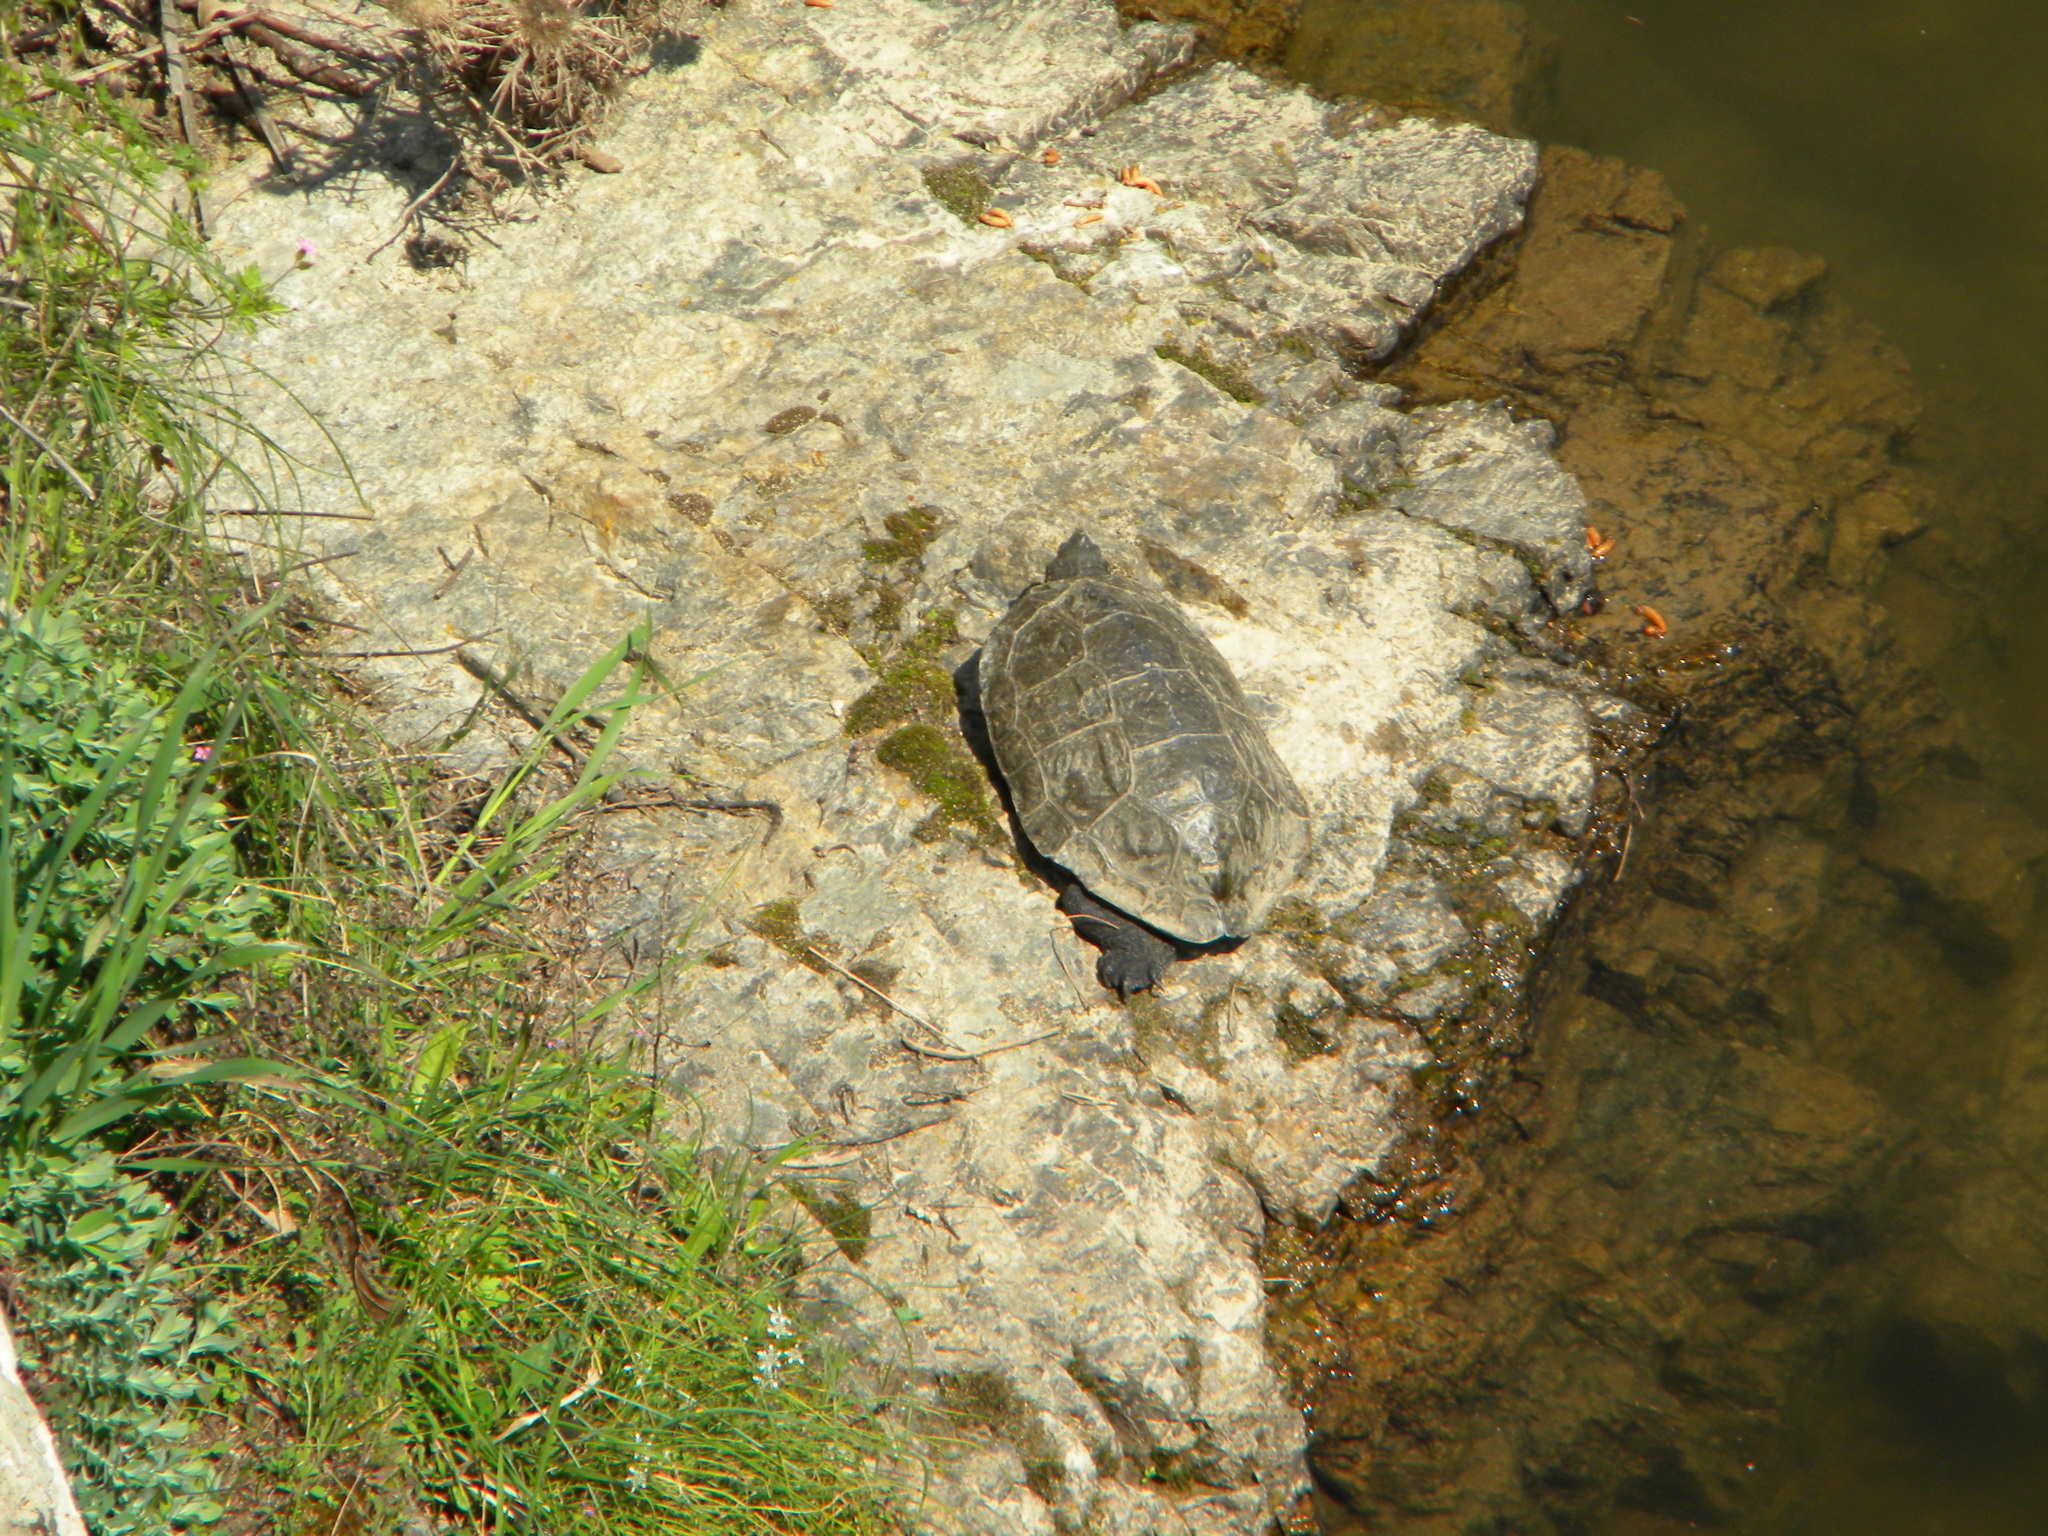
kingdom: Animalia
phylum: Chordata
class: Testudines
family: Geoemydidae
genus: Mauremys
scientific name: Mauremys rivulata
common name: Western caspian turtle
